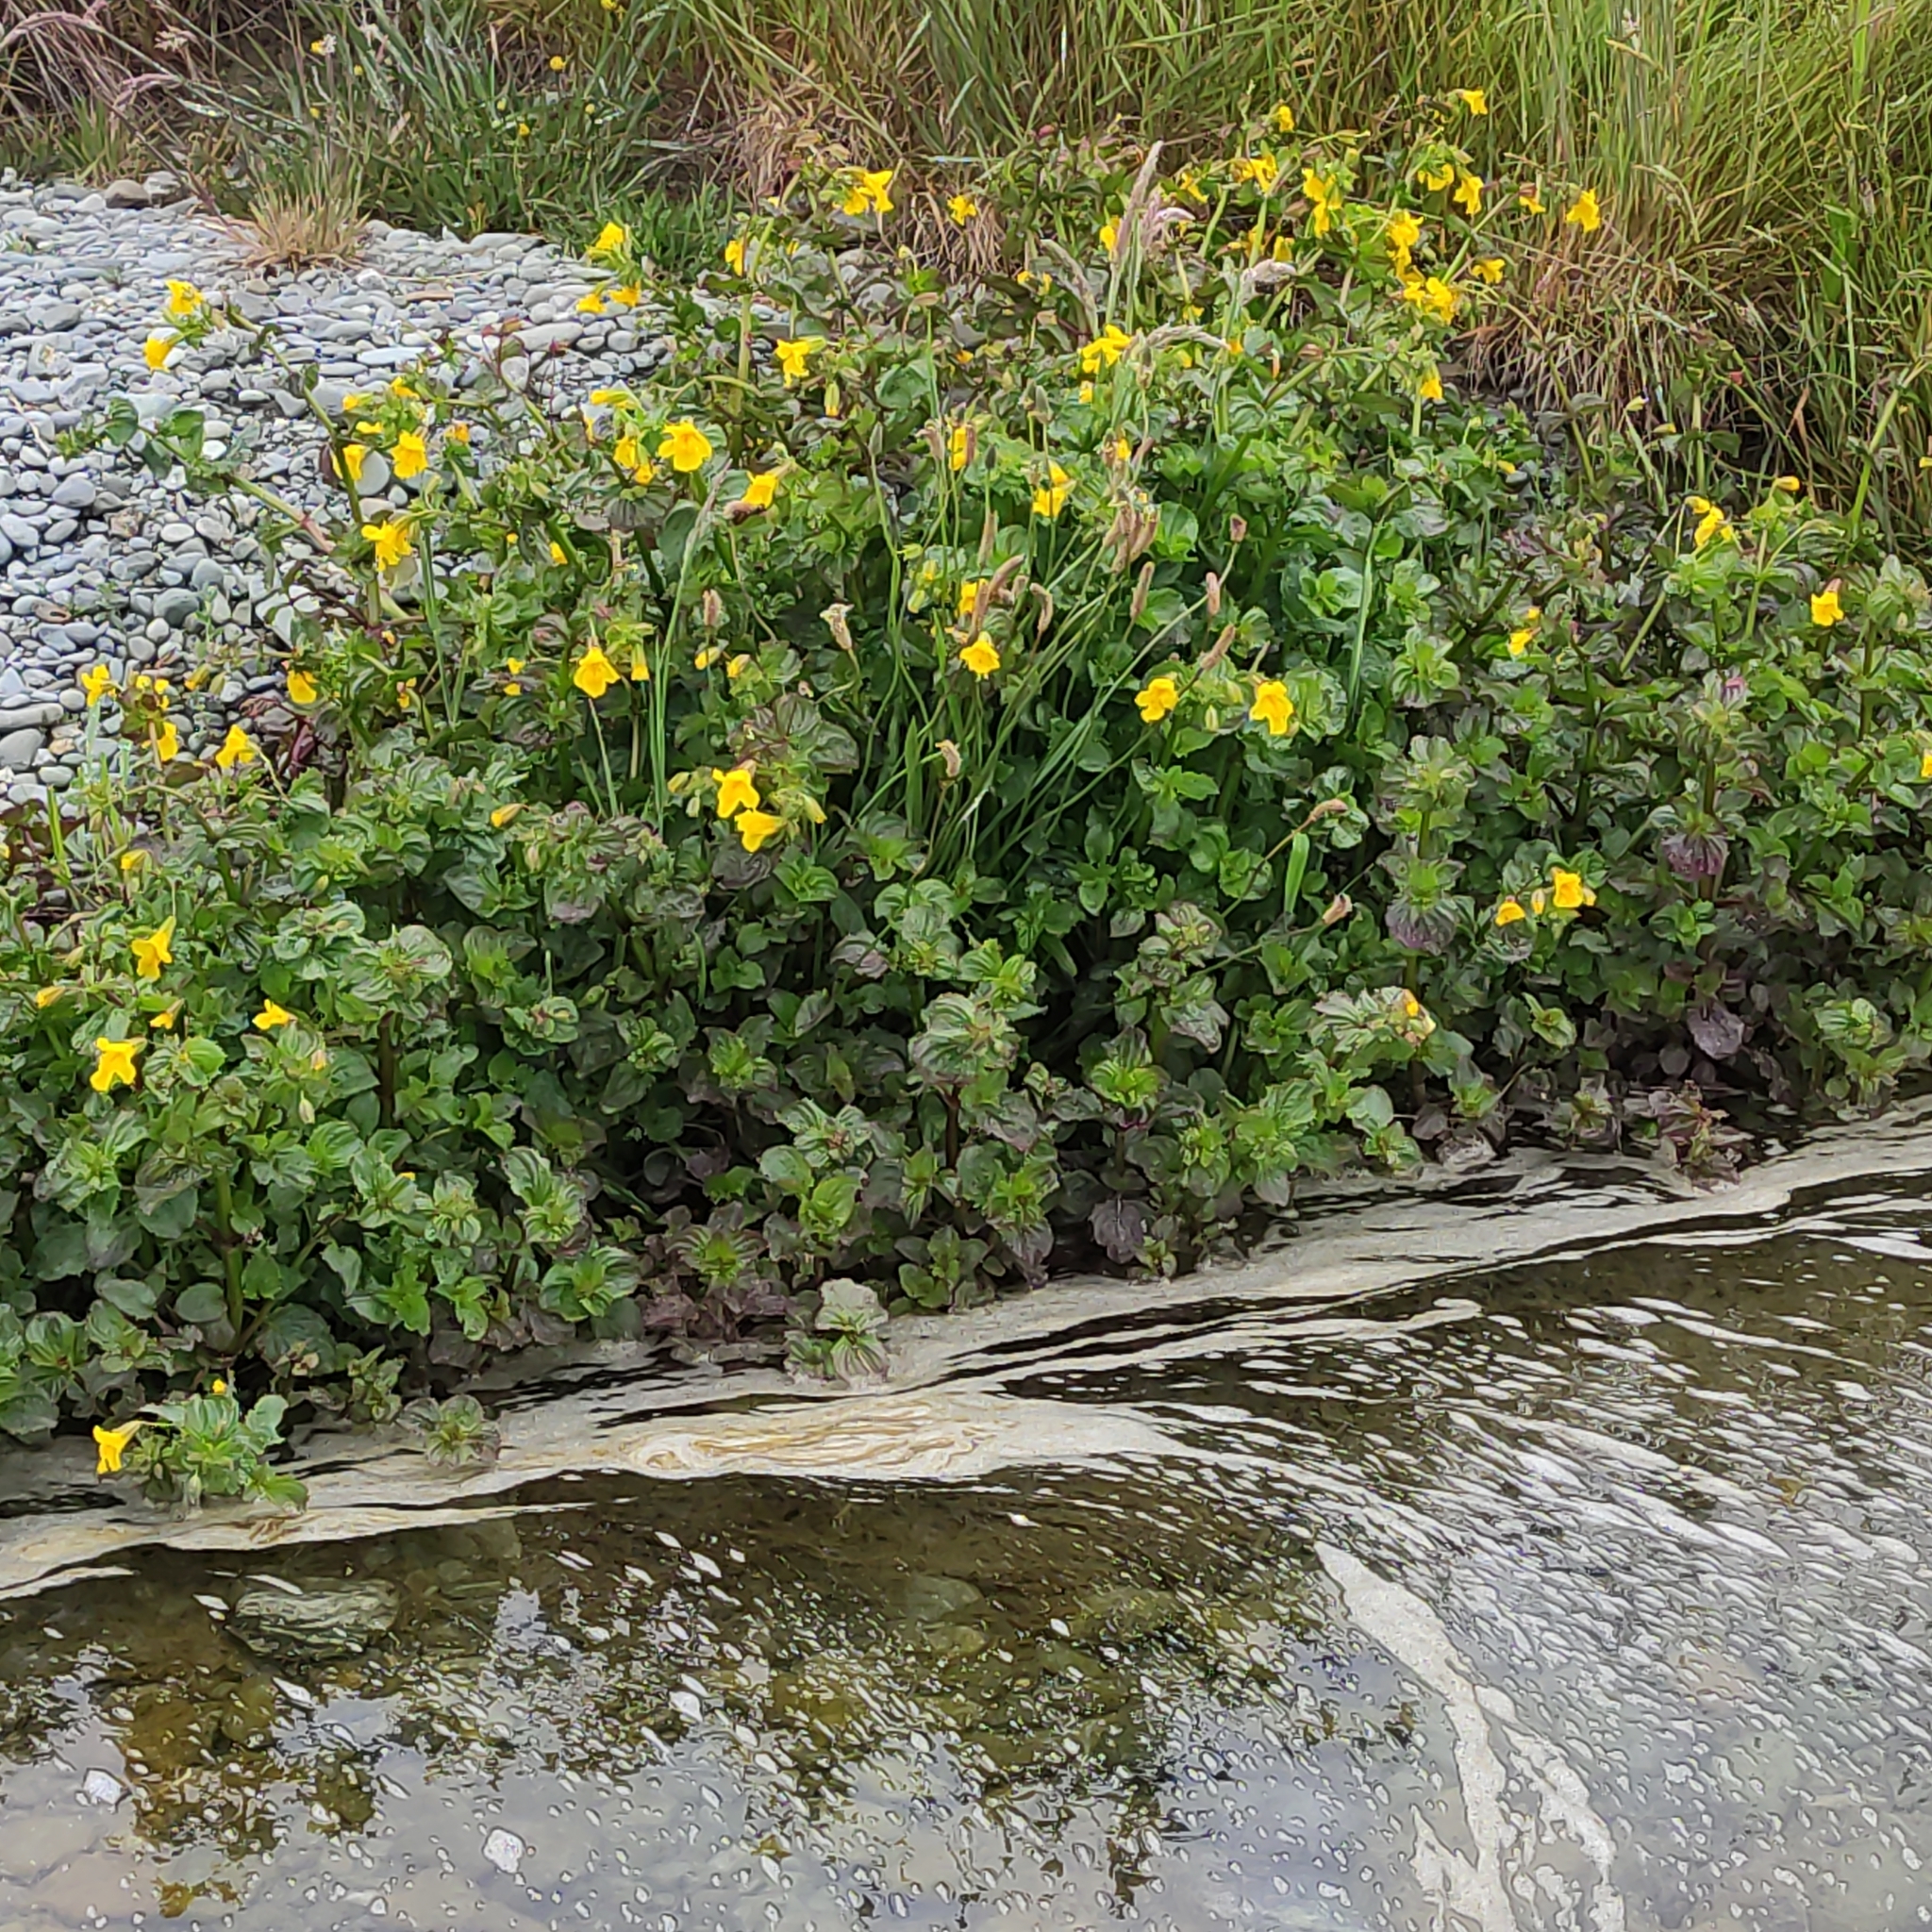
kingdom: Plantae
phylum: Tracheophyta
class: Magnoliopsida
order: Lamiales
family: Phrymaceae
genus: Erythranthe
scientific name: Erythranthe guttata
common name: Monkeyflower
